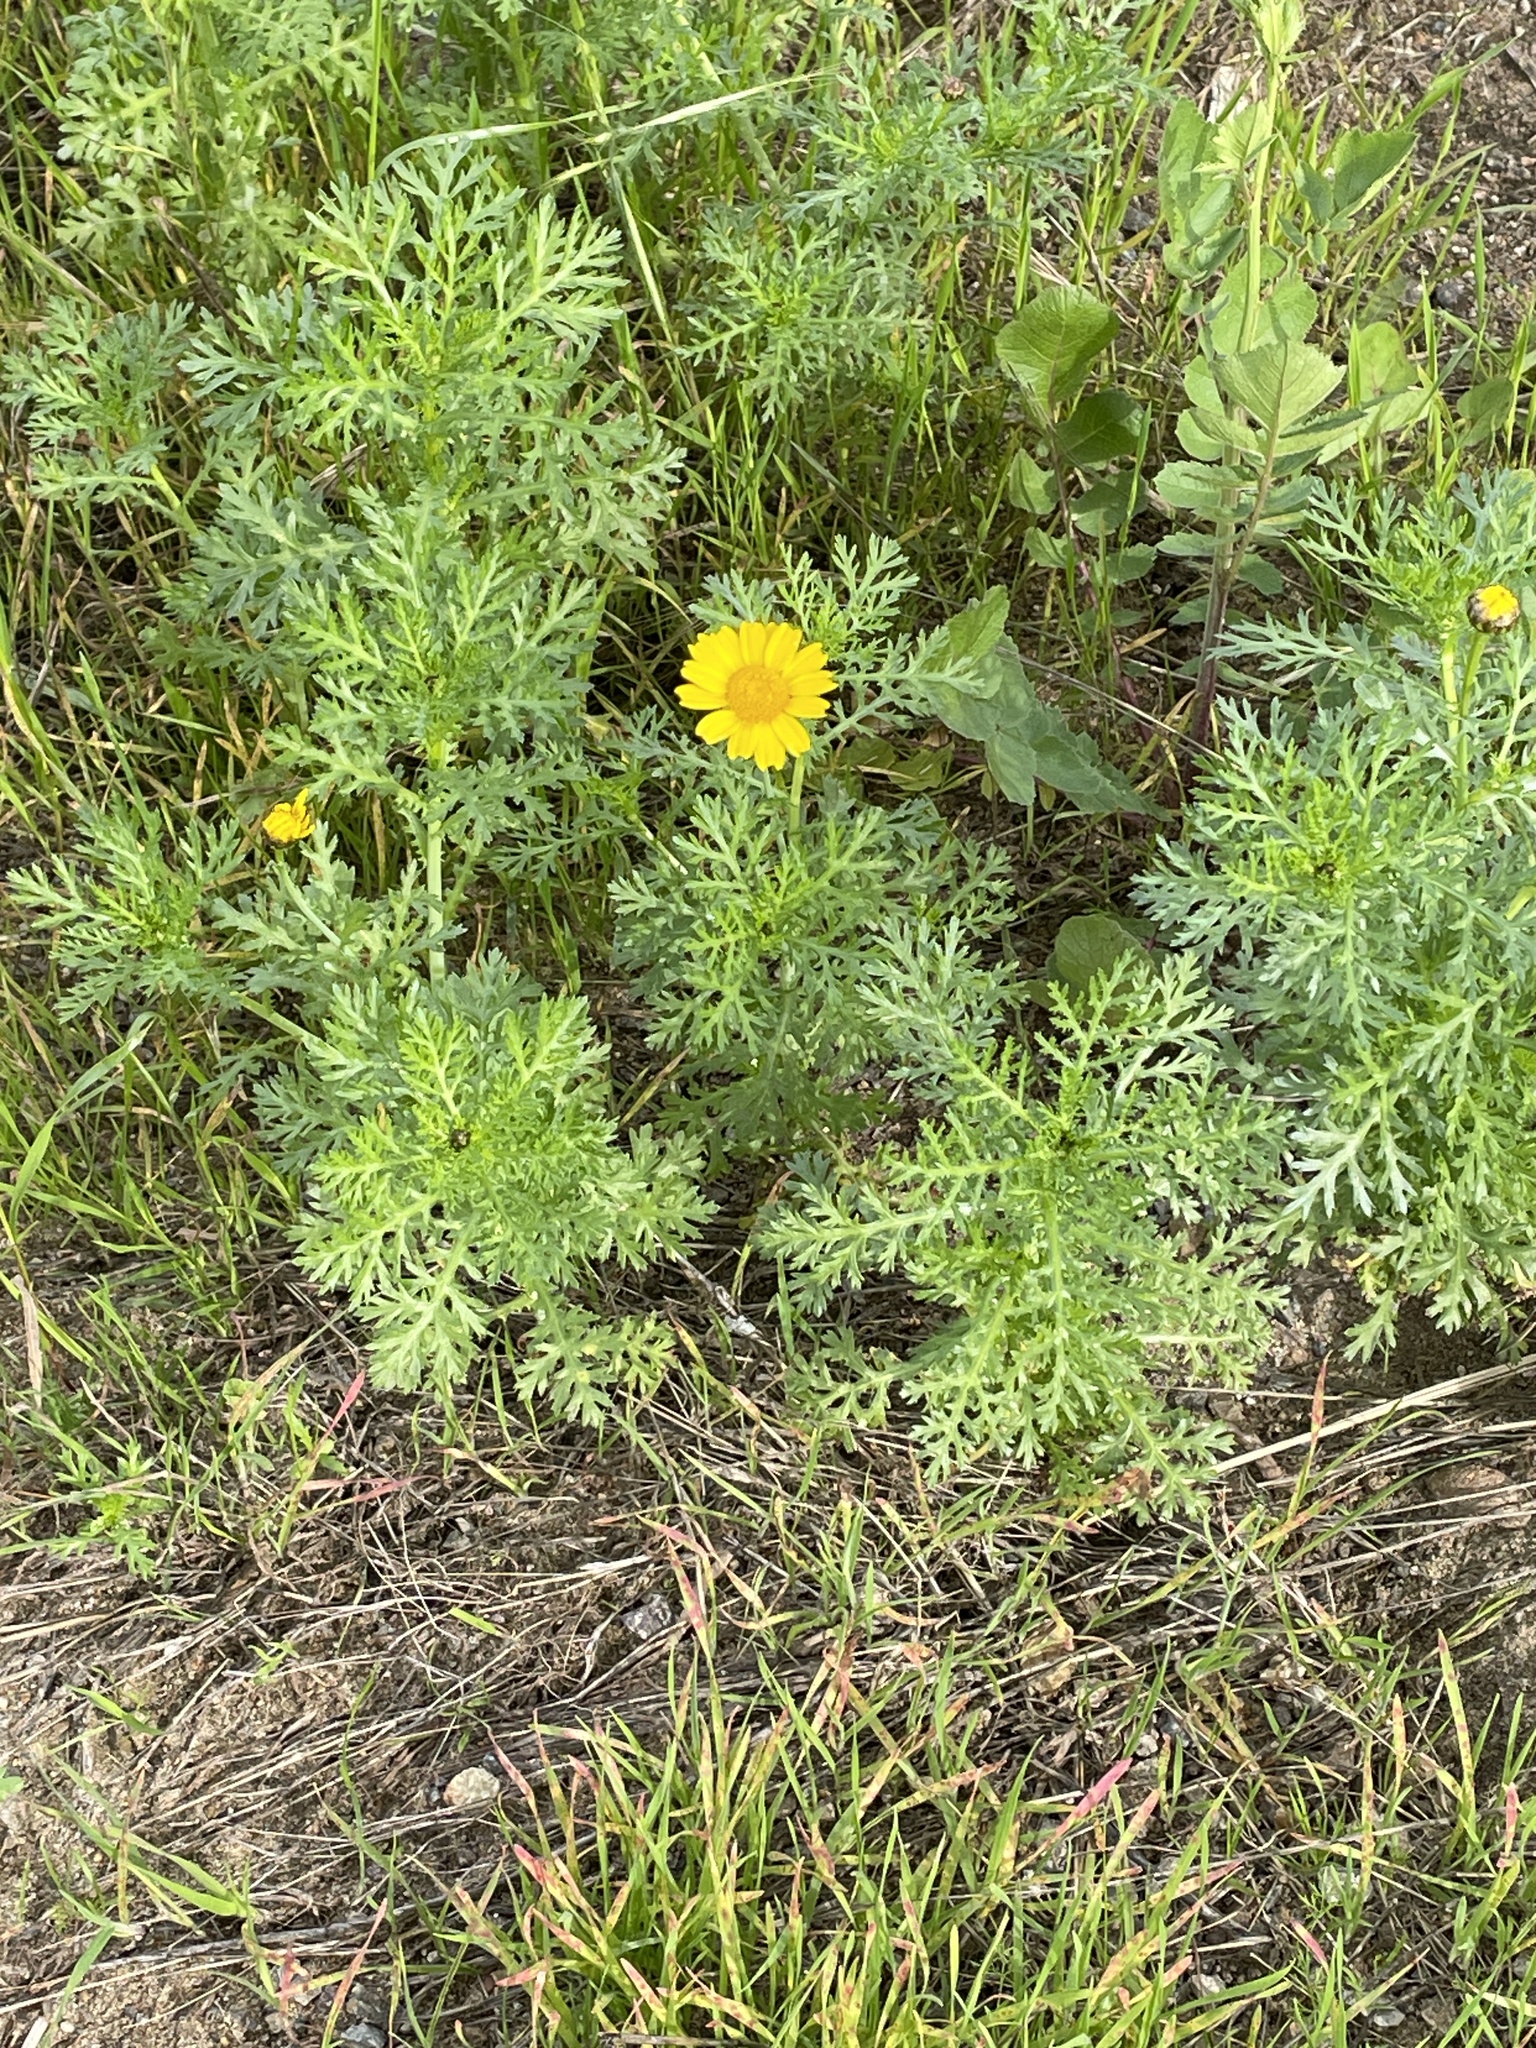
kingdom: Plantae
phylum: Tracheophyta
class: Magnoliopsida
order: Asterales
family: Asteraceae
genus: Glebionis
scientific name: Glebionis coronaria
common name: Crowndaisy
